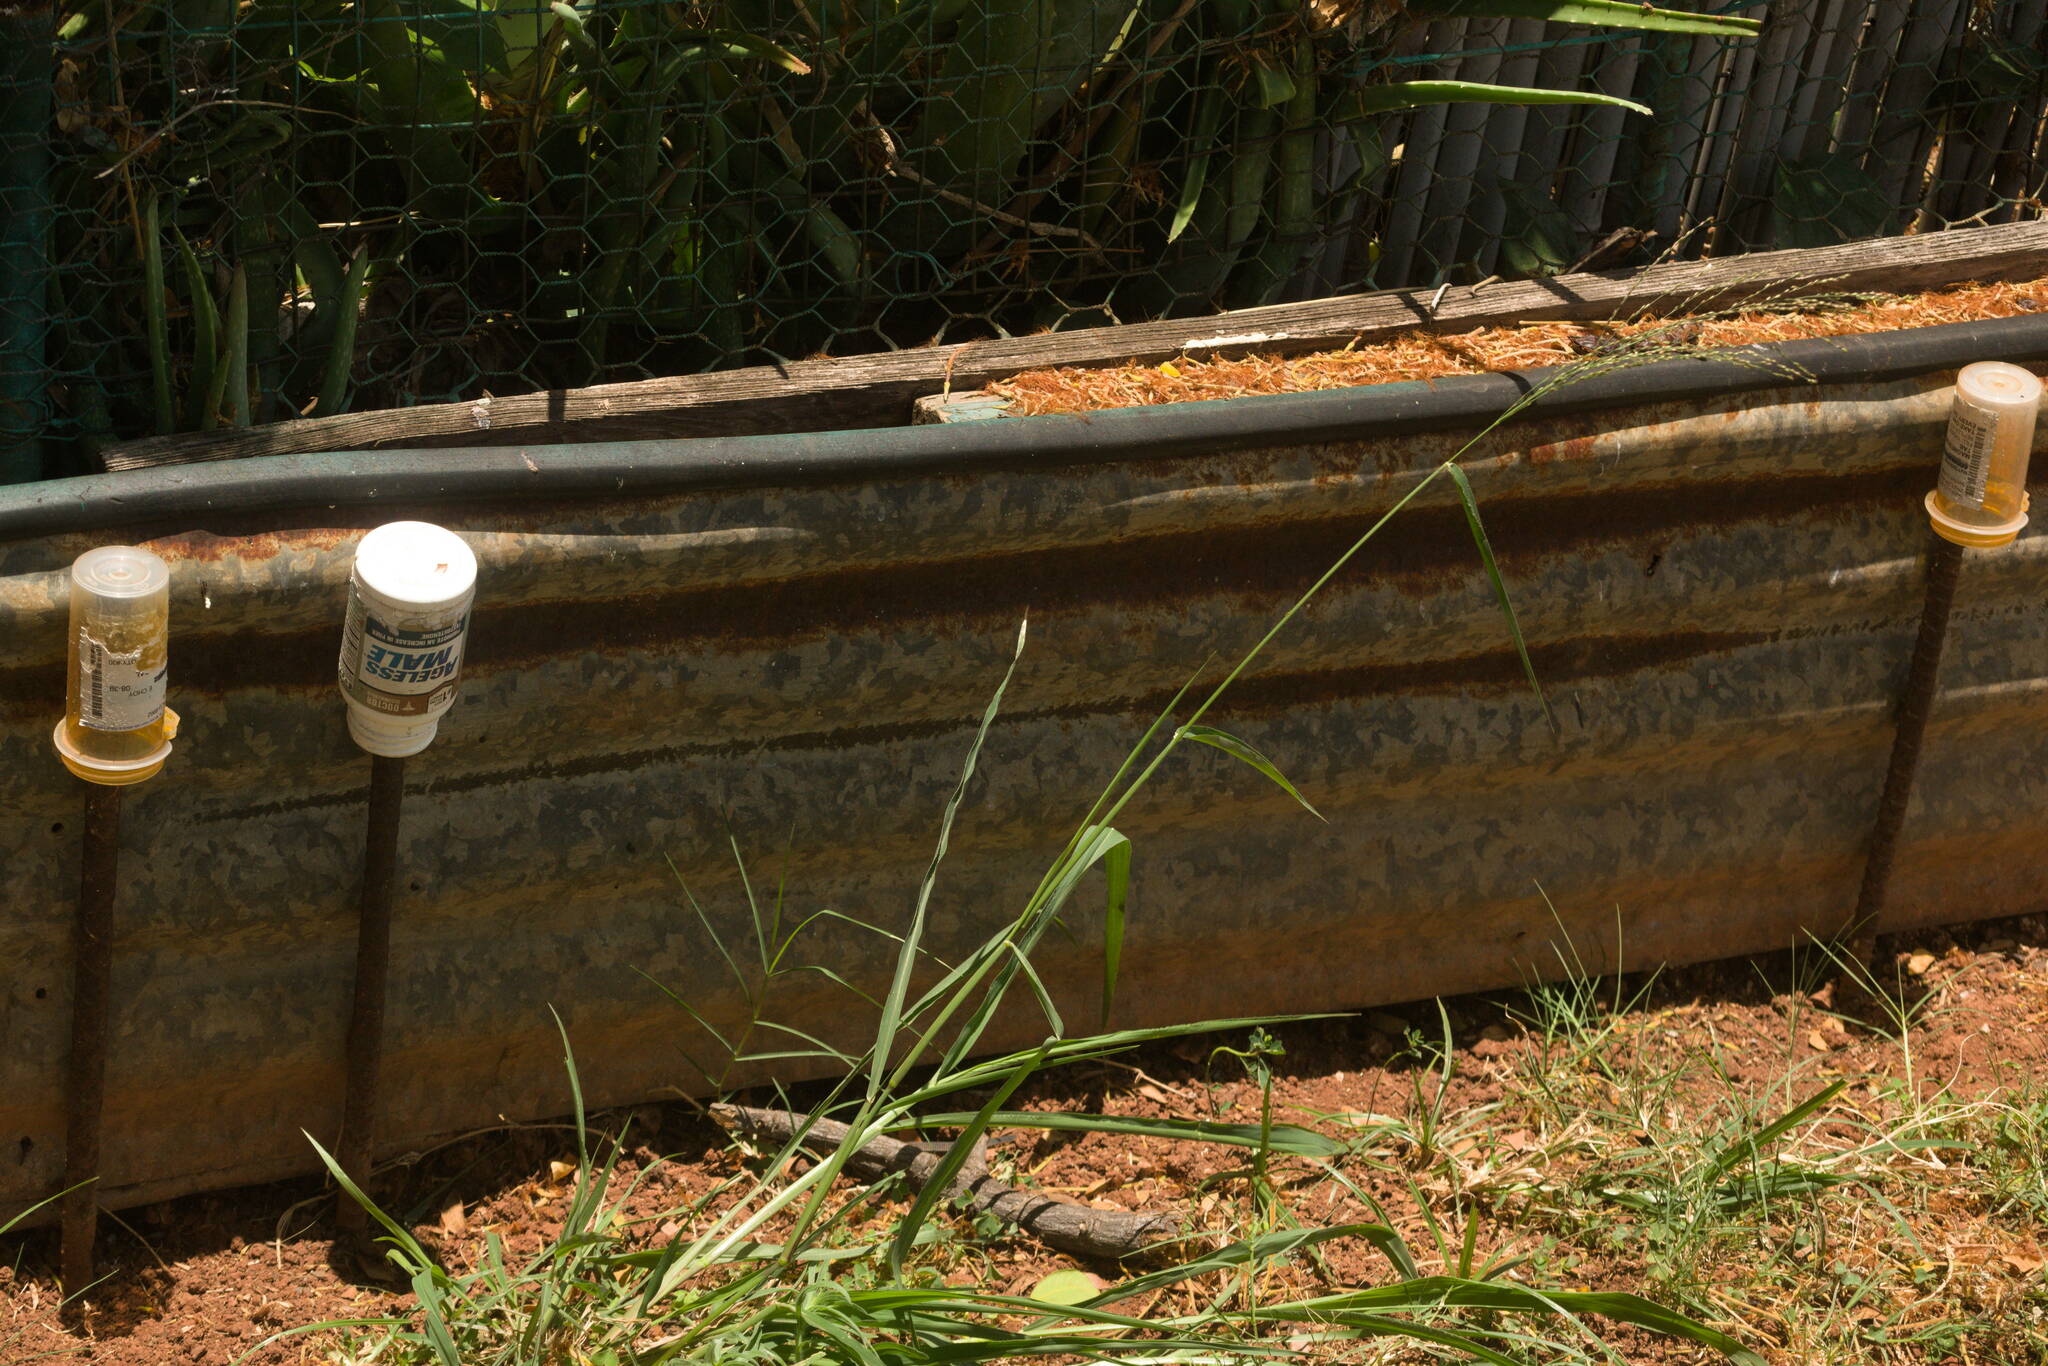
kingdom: Plantae
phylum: Tracheophyta
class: Liliopsida
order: Poales
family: Poaceae
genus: Megathyrsus
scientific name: Megathyrsus maximus
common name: Guineagrass
